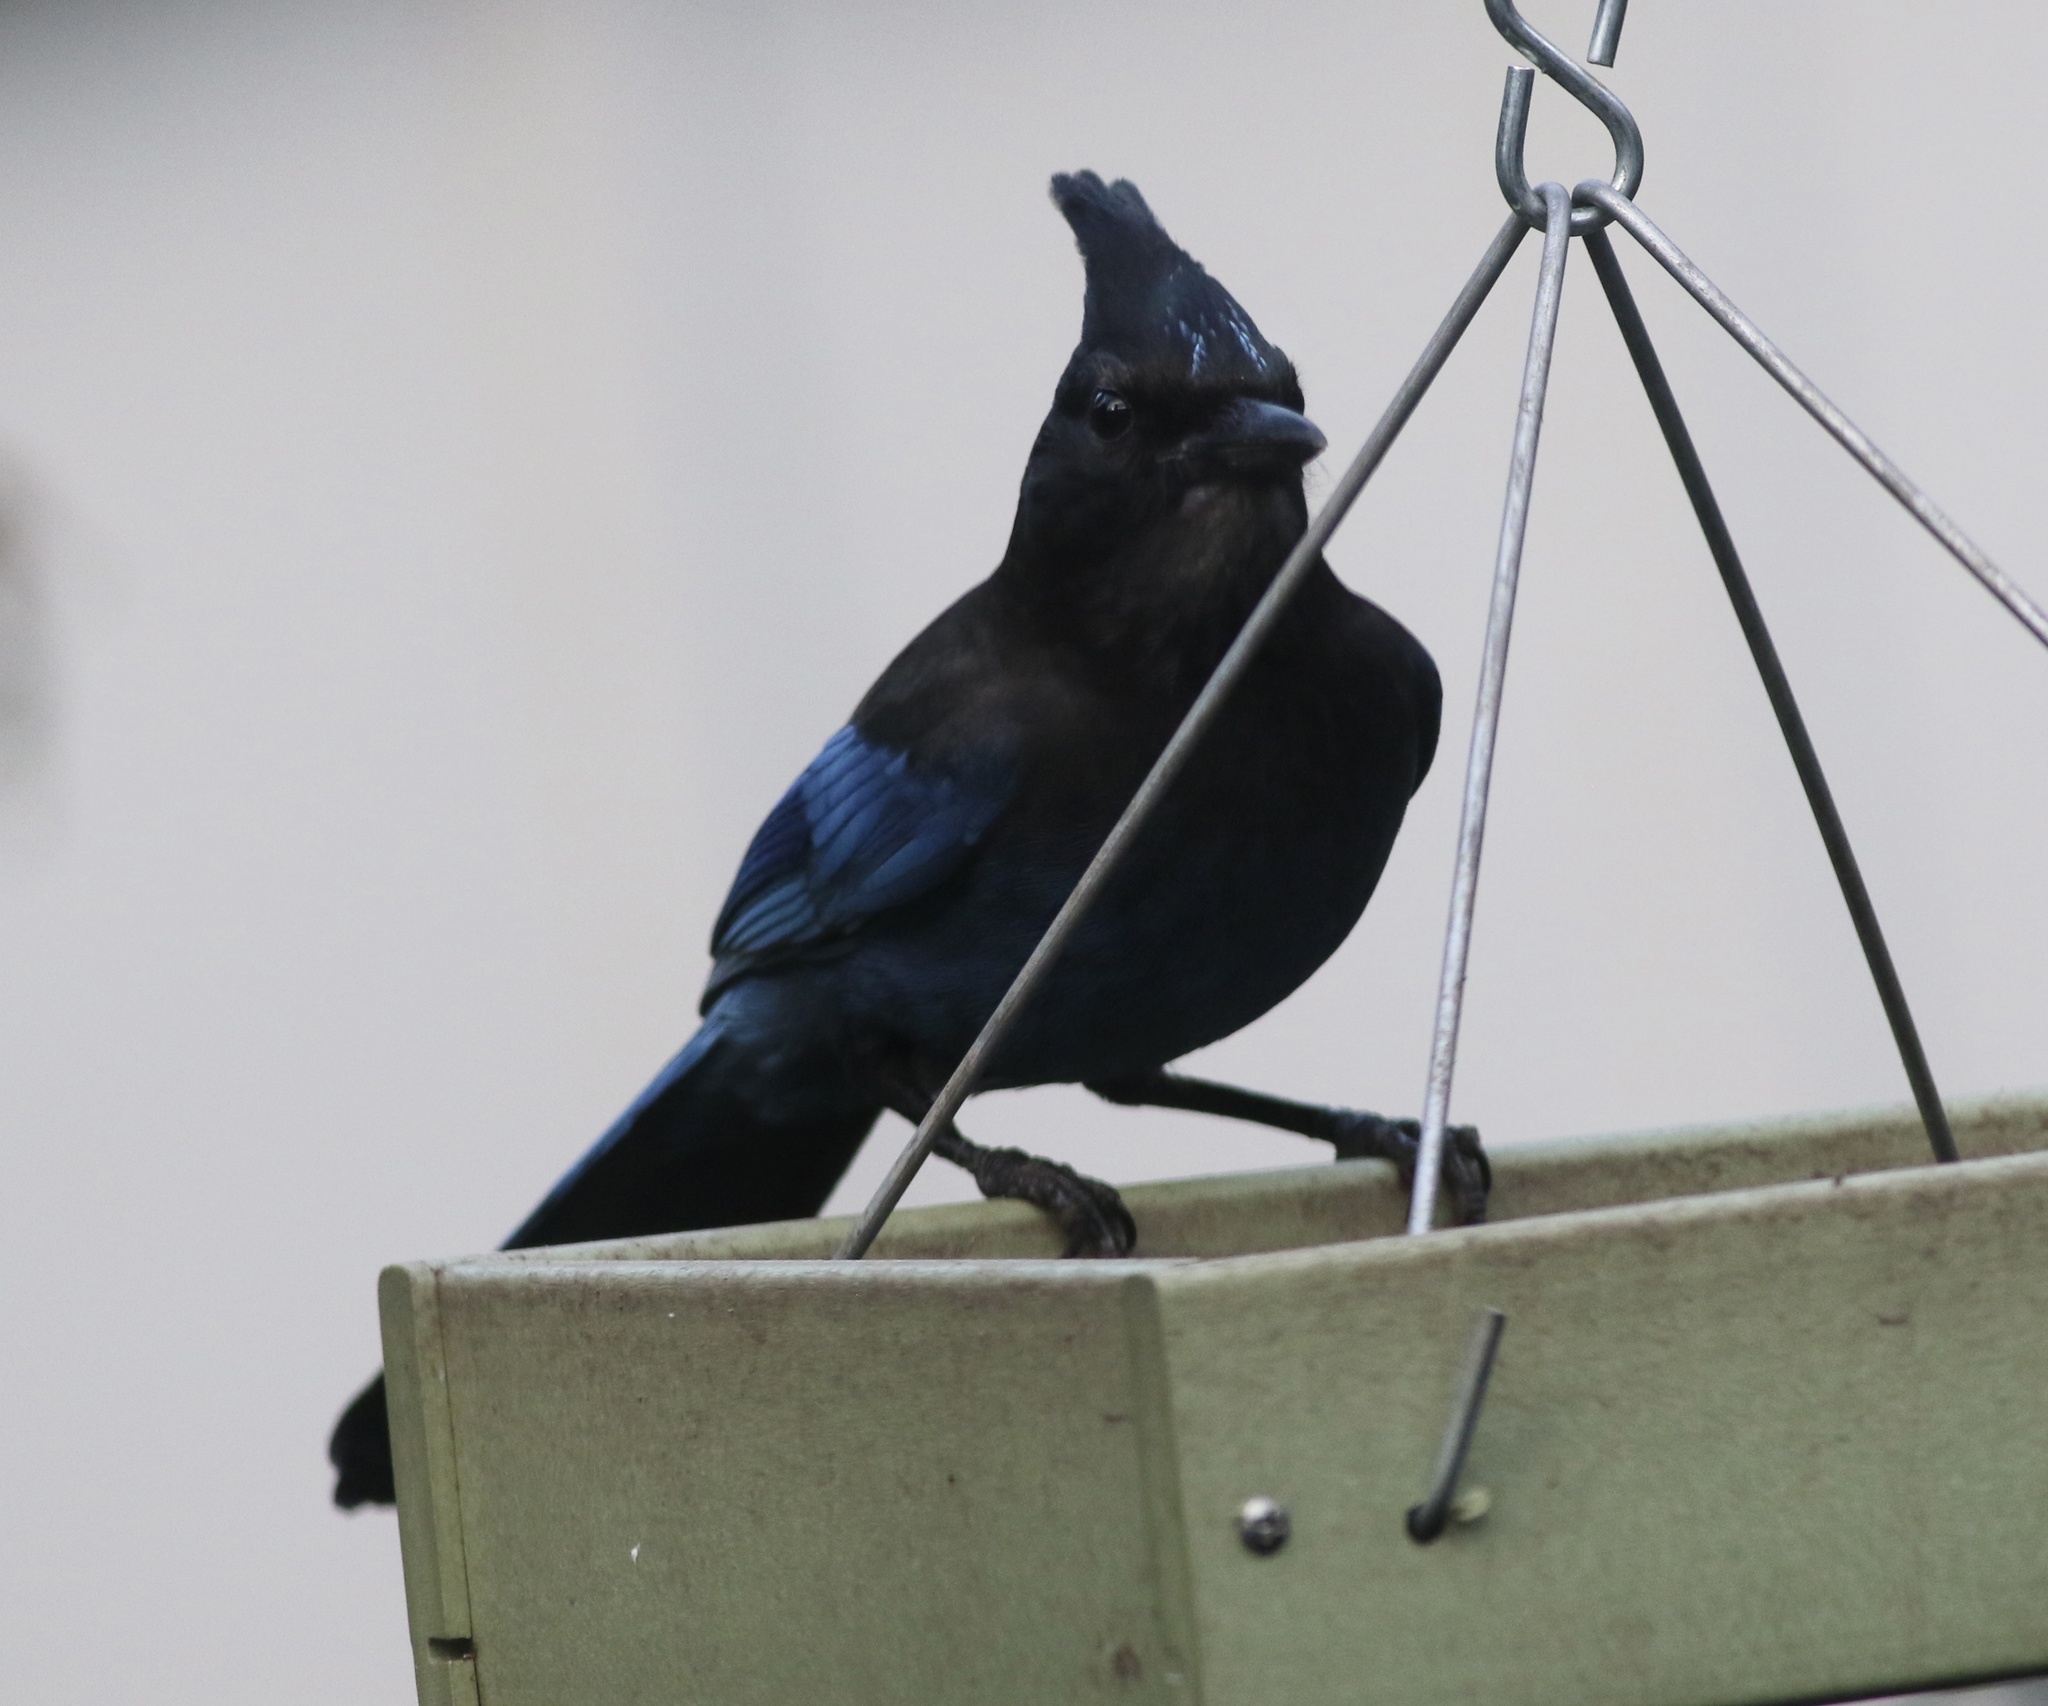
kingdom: Animalia
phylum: Chordata
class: Aves
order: Passeriformes
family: Corvidae
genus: Cyanocitta
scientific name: Cyanocitta stelleri
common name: Steller's jay
